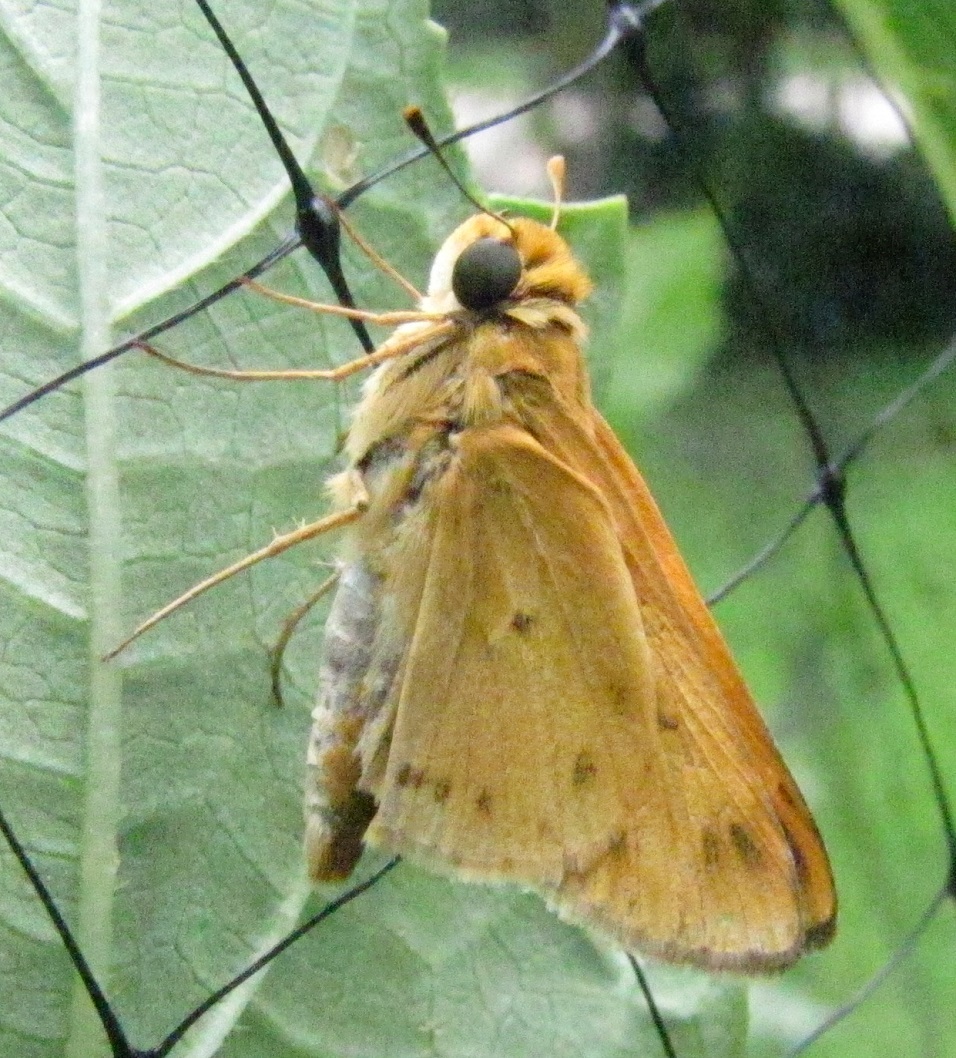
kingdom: Animalia
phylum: Arthropoda
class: Insecta
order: Lepidoptera
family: Hesperiidae
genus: Hylephila
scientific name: Hylephila phyleus
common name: Fiery skipper
